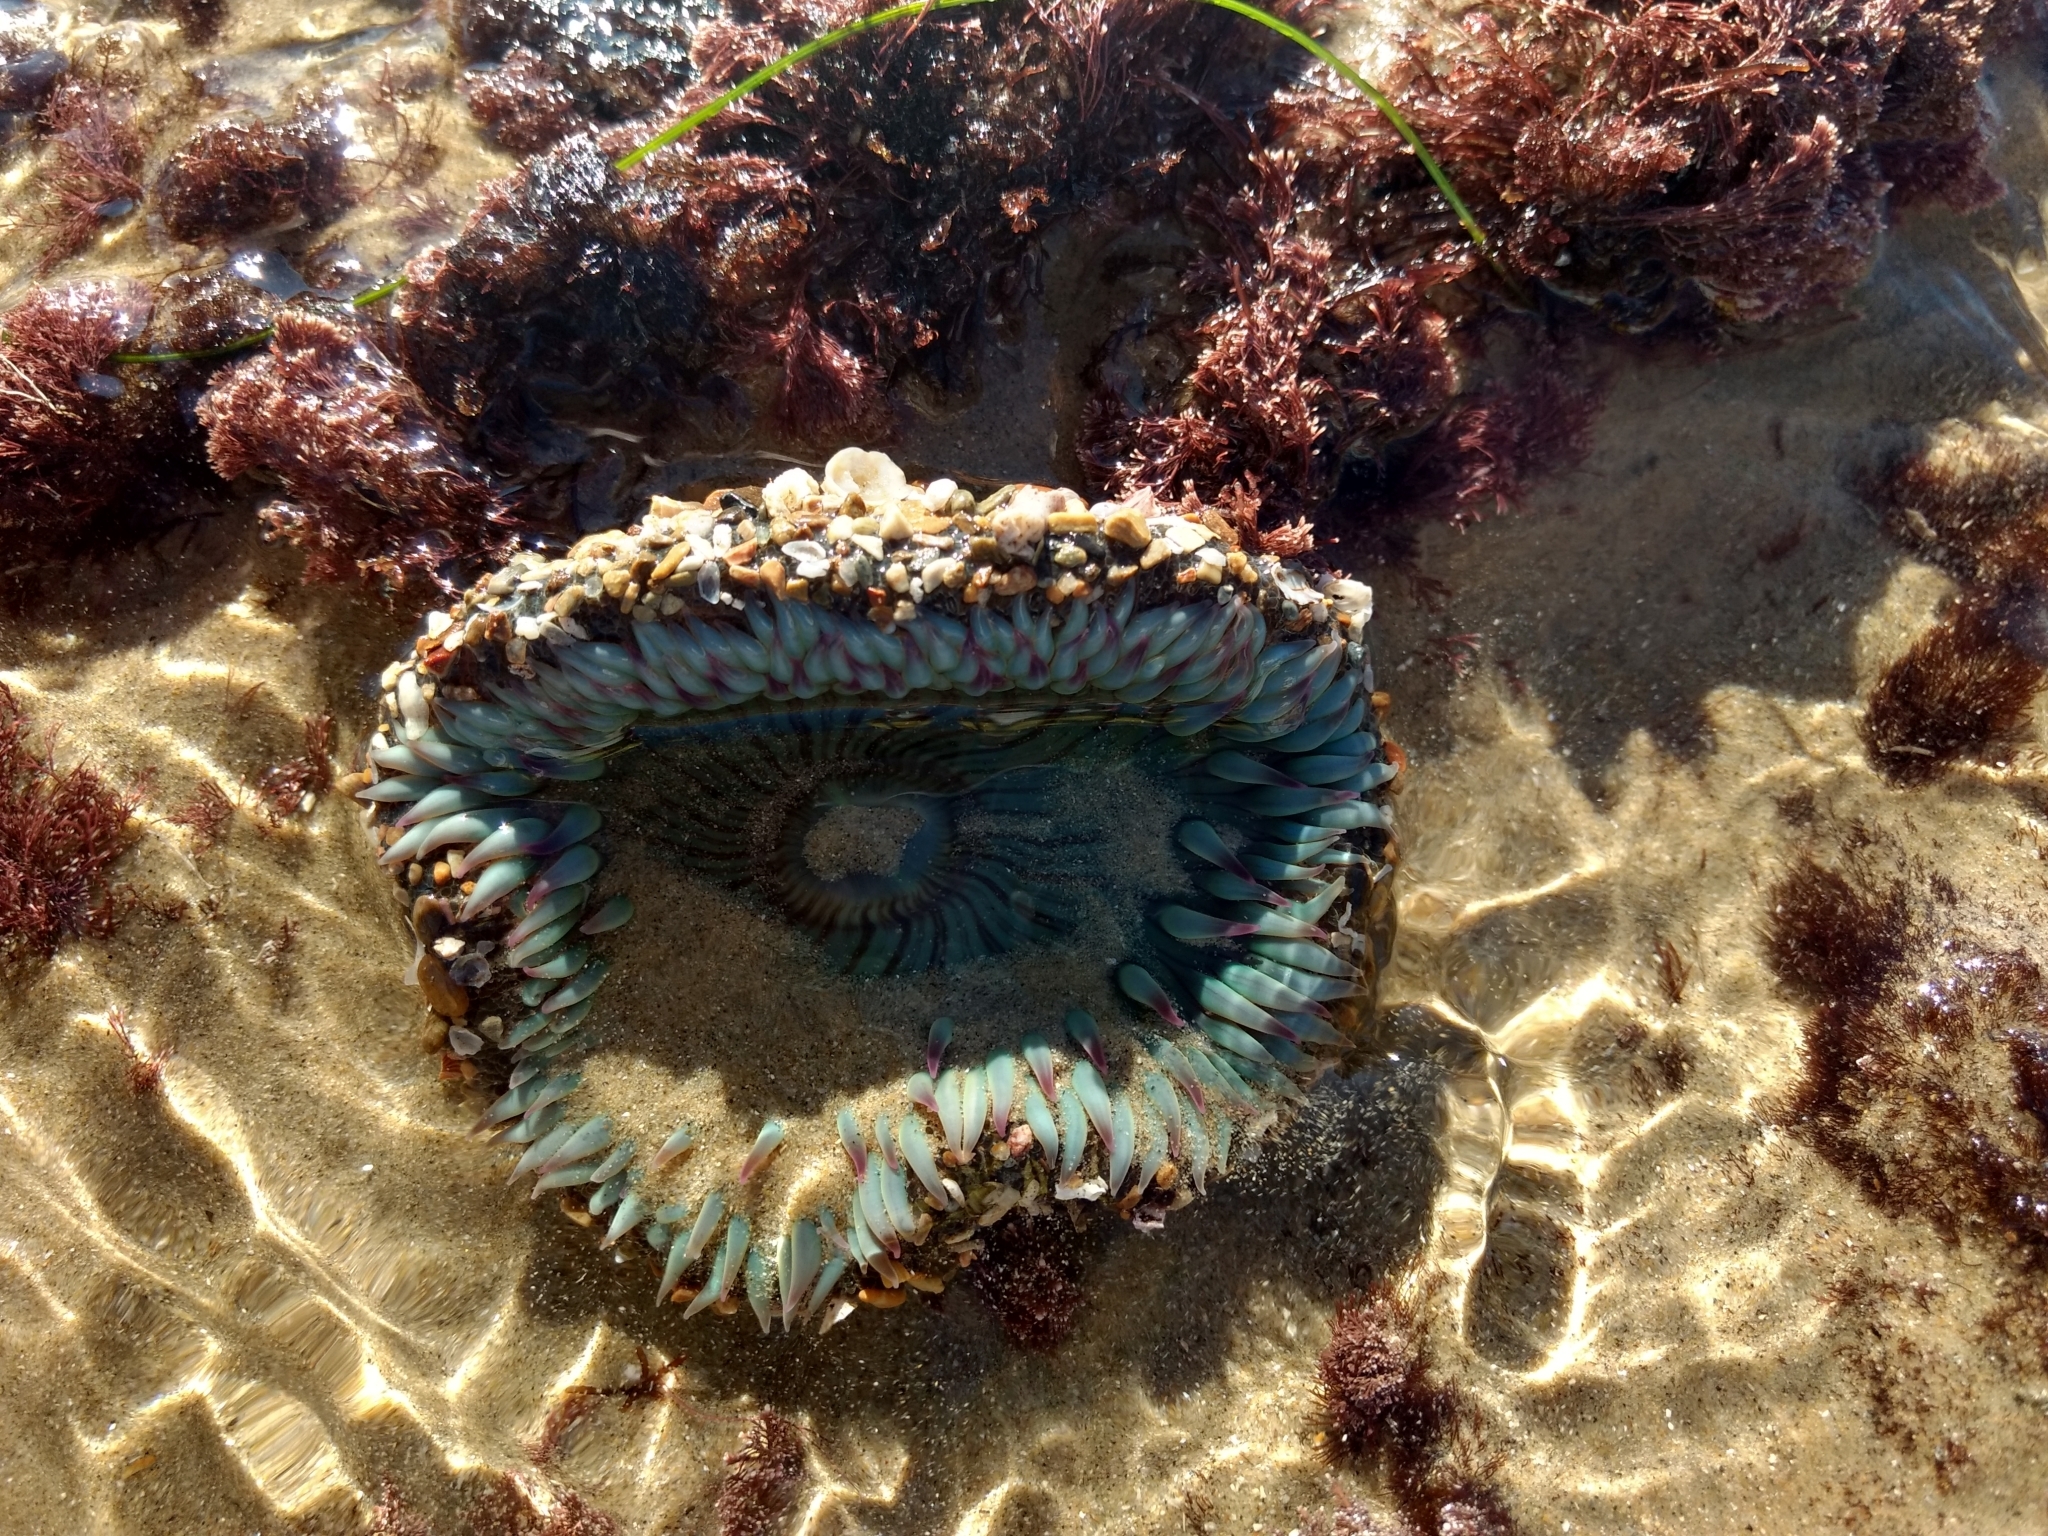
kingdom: Animalia
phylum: Cnidaria
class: Anthozoa
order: Actiniaria
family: Actiniidae
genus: Anthopleura
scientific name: Anthopleura sola
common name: Sun anemone
